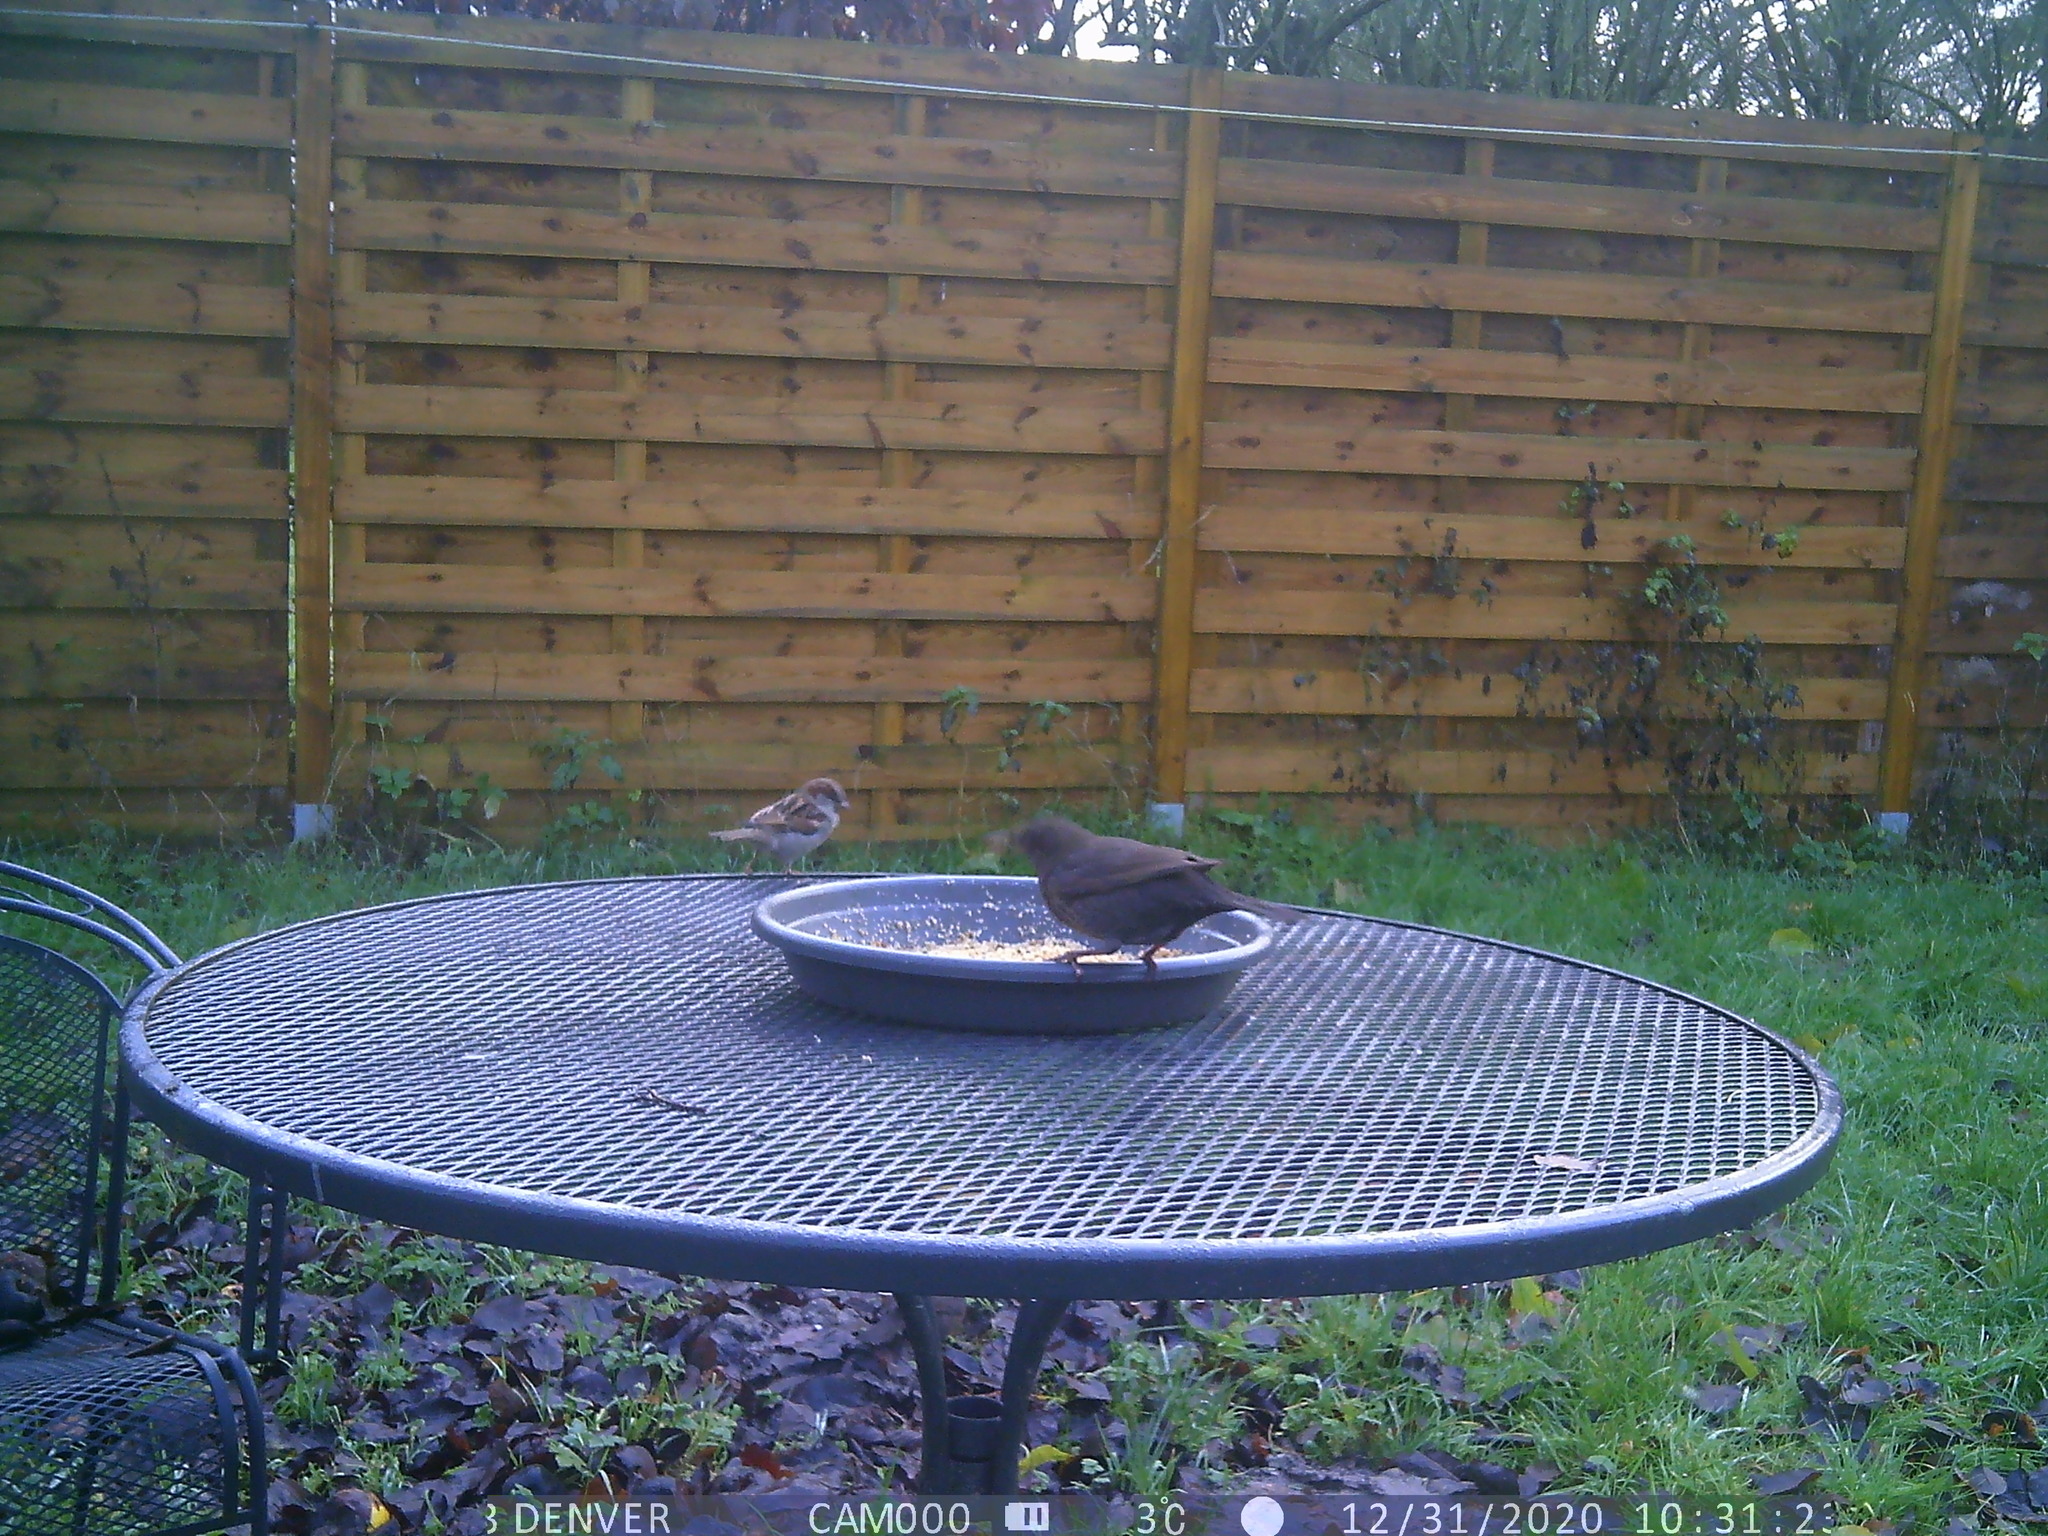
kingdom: Animalia
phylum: Chordata
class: Aves
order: Passeriformes
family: Turdidae
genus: Turdus
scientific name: Turdus merula
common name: Common blackbird
